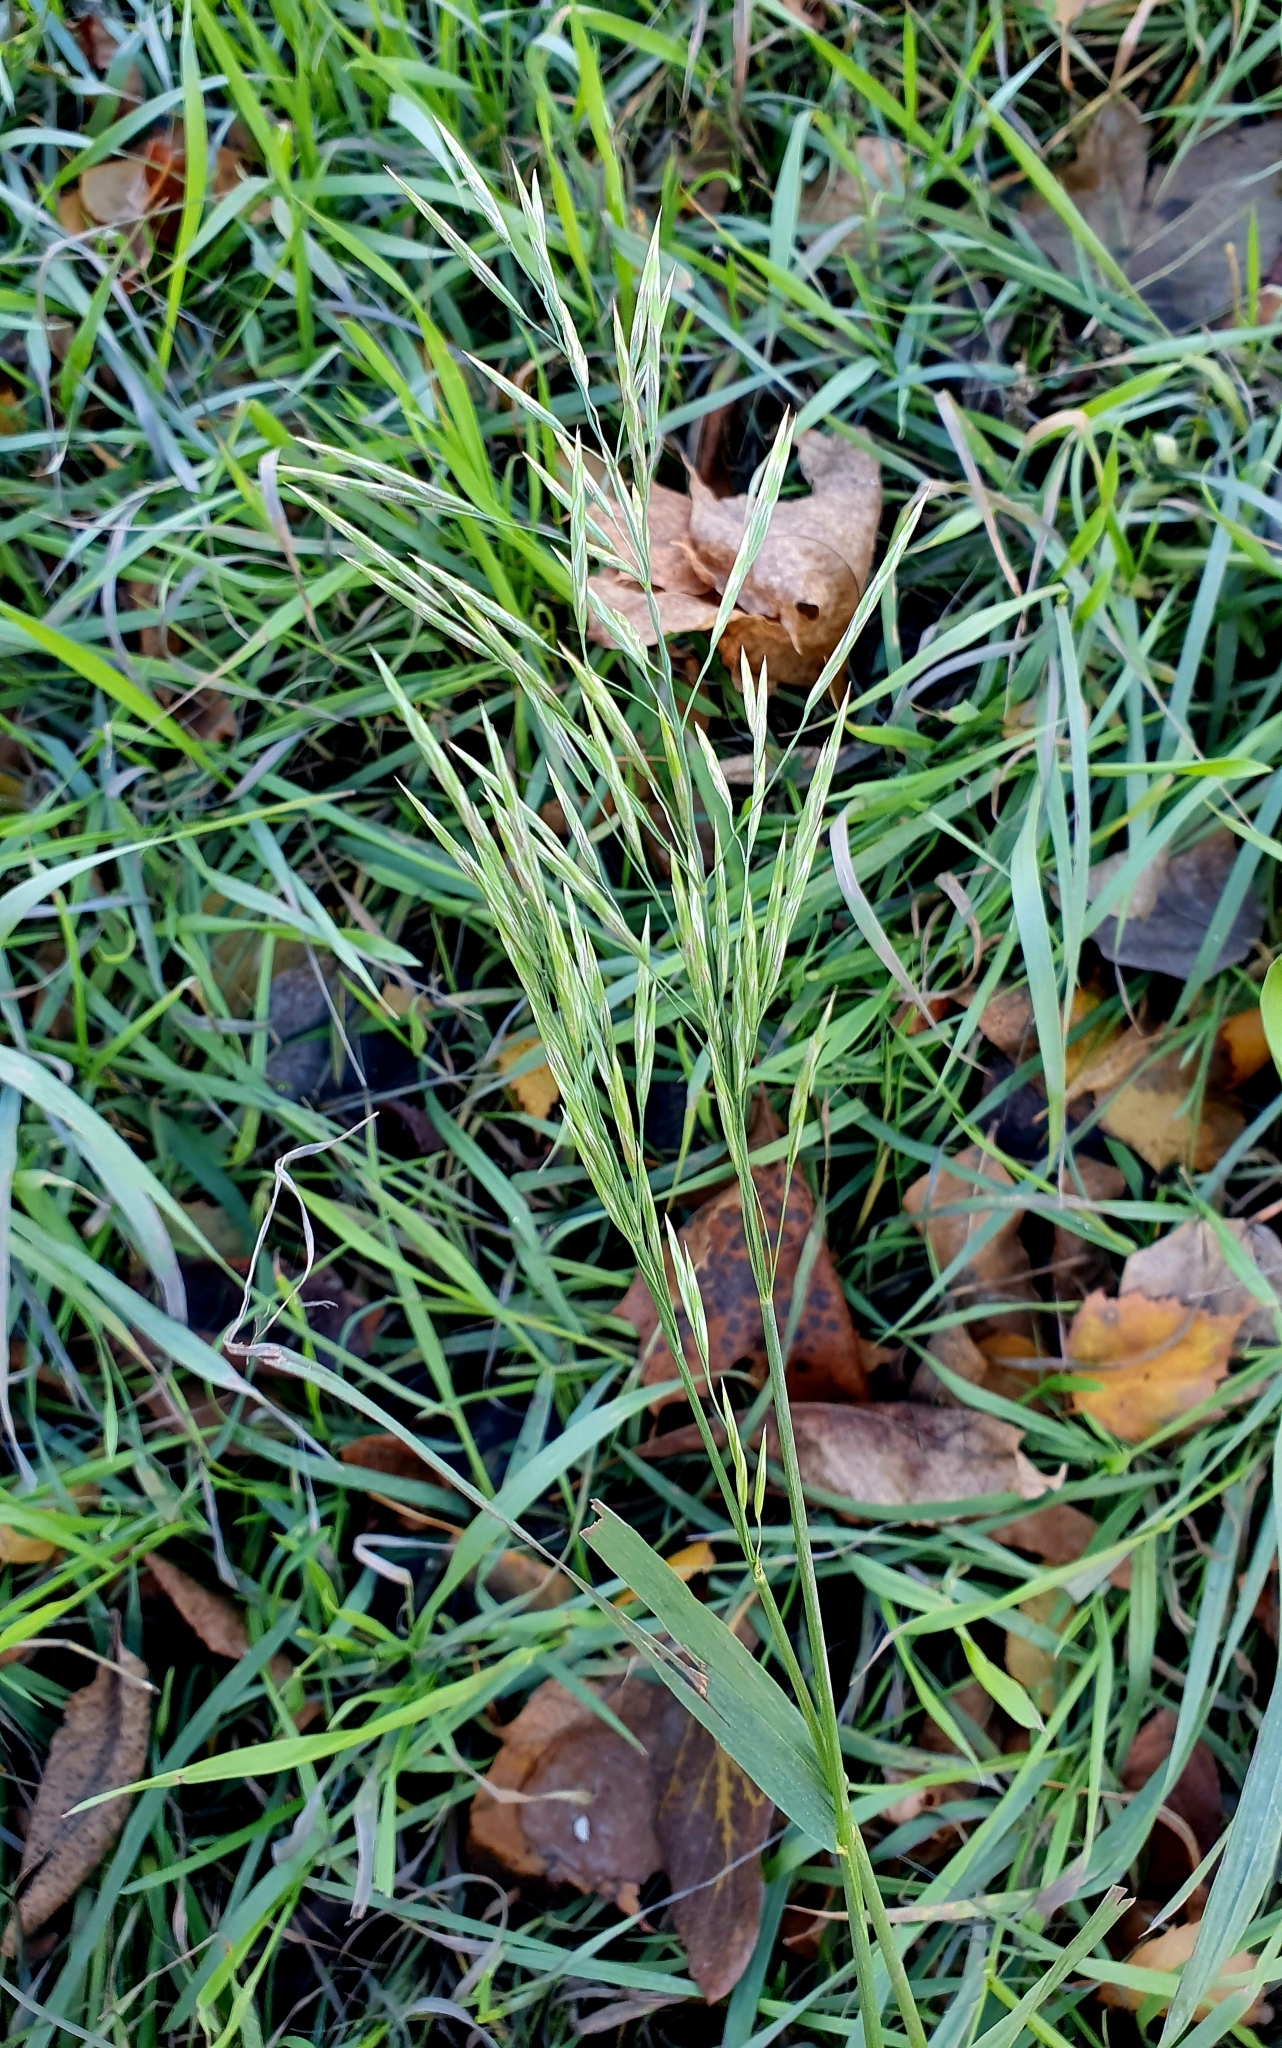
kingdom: Plantae
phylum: Tracheophyta
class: Liliopsida
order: Poales
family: Poaceae
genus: Bromus
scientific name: Bromus inermis
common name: Smooth brome
